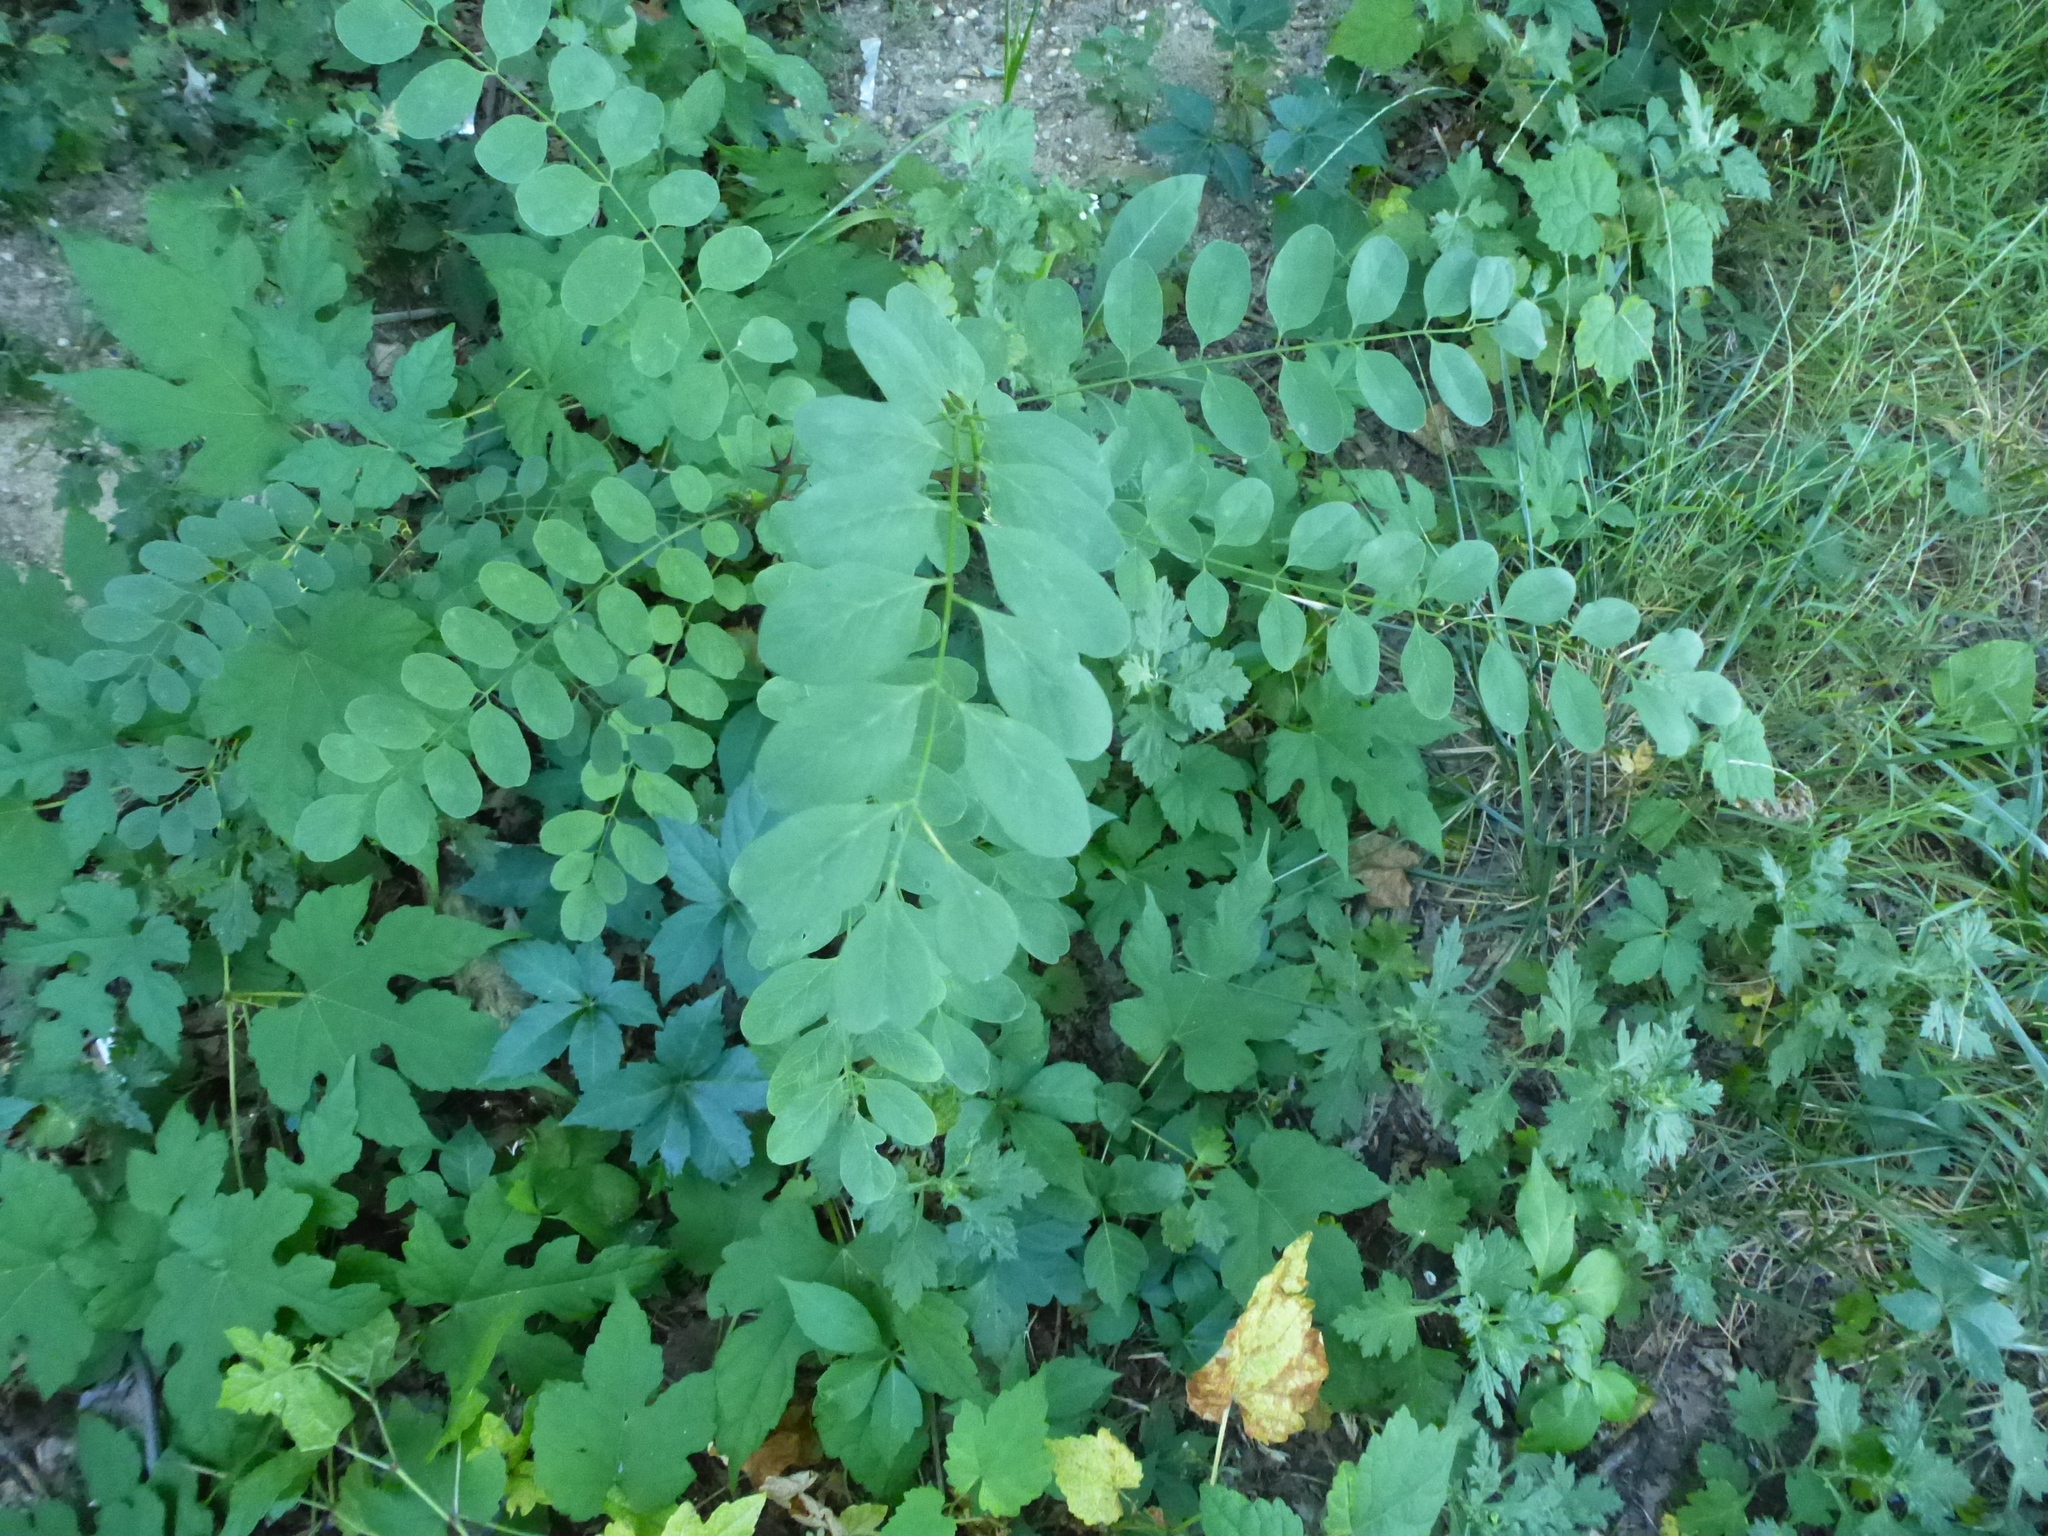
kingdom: Plantae
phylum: Tracheophyta
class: Magnoliopsida
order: Fabales
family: Fabaceae
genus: Robinia
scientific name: Robinia pseudoacacia
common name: Black locust
